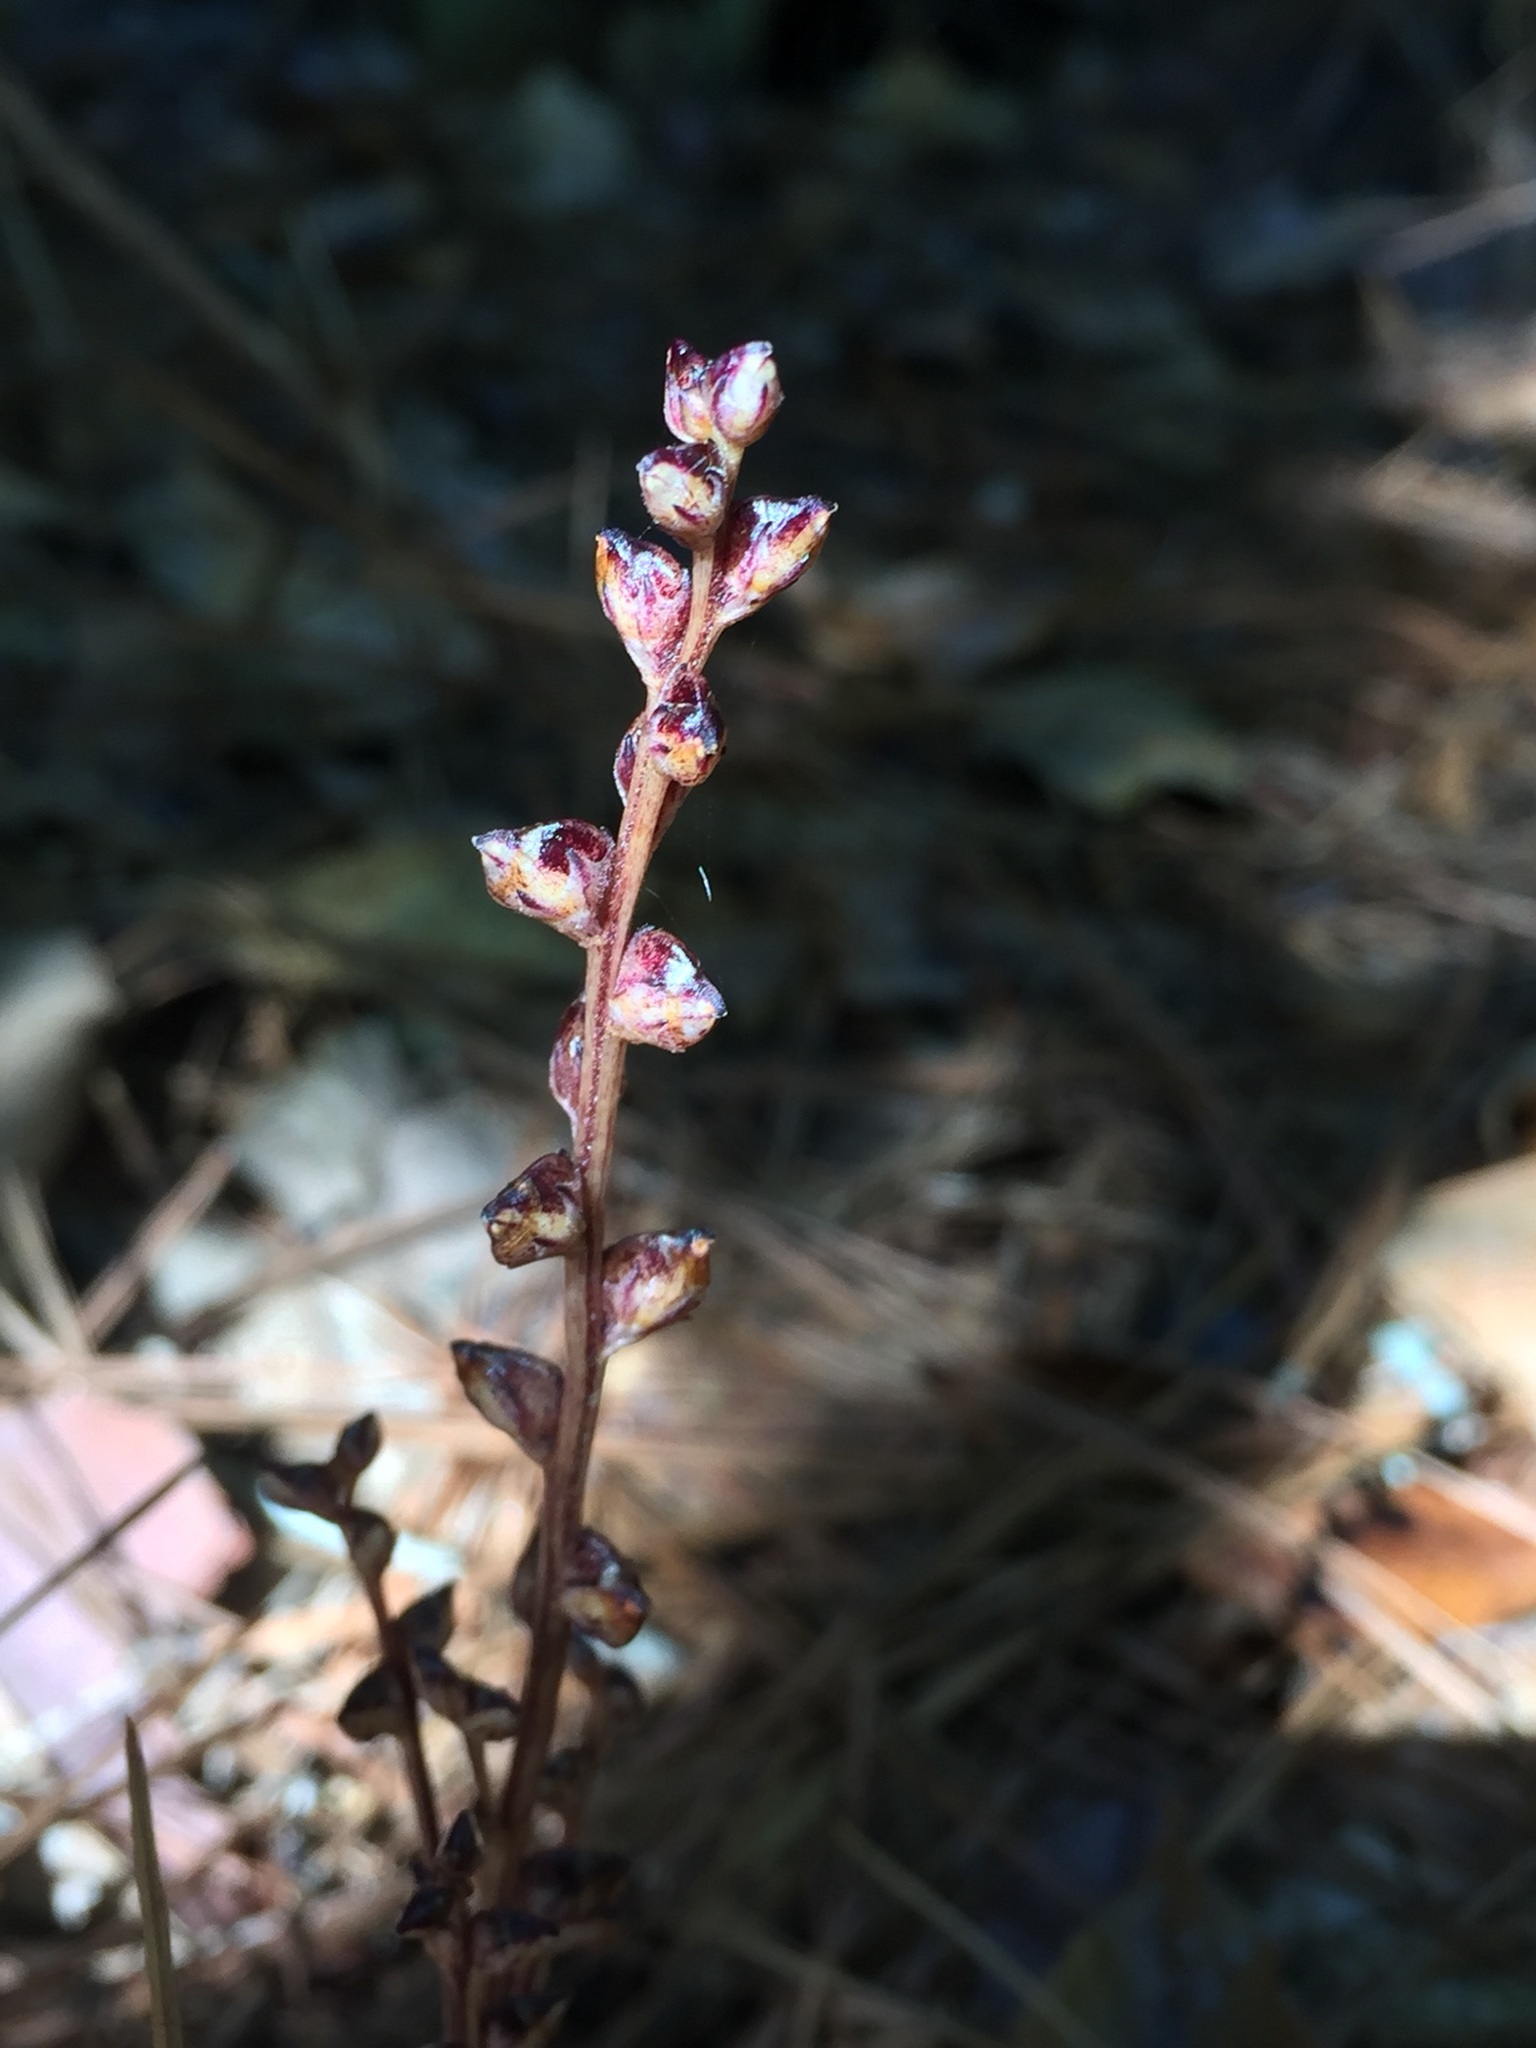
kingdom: Plantae
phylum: Tracheophyta
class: Magnoliopsida
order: Lamiales
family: Orobanchaceae
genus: Epifagus
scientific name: Epifagus virginiana
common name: Beechdrops
